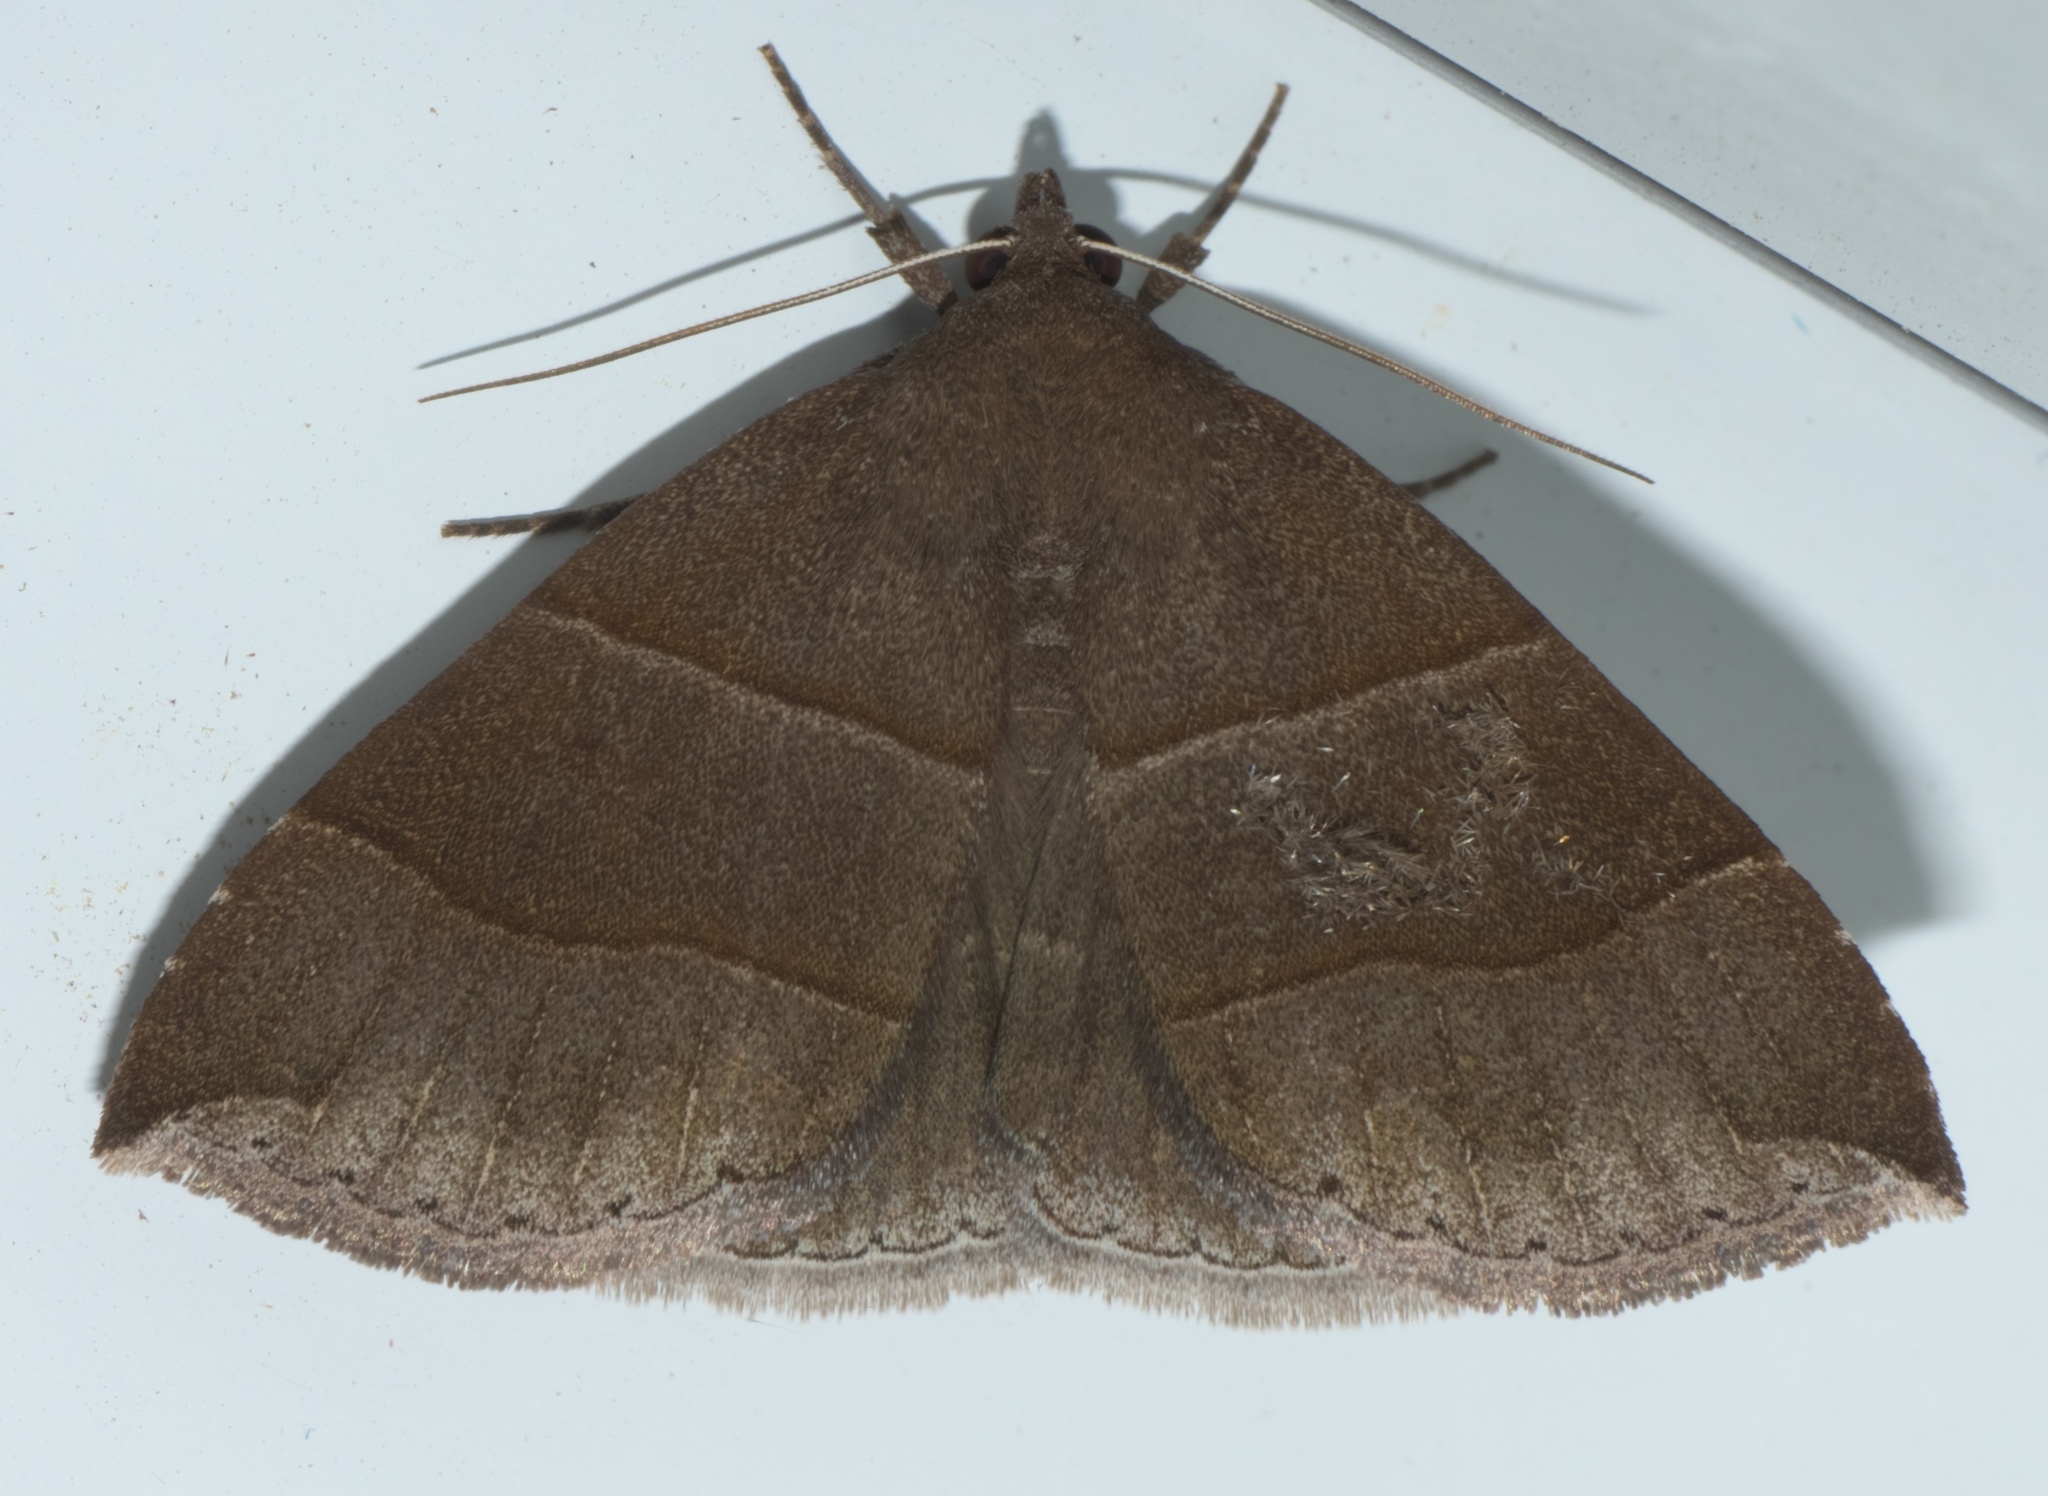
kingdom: Animalia
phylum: Arthropoda
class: Insecta
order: Lepidoptera
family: Erebidae
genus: Parallelia
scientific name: Parallelia bistriaris
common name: Maple looper moth
